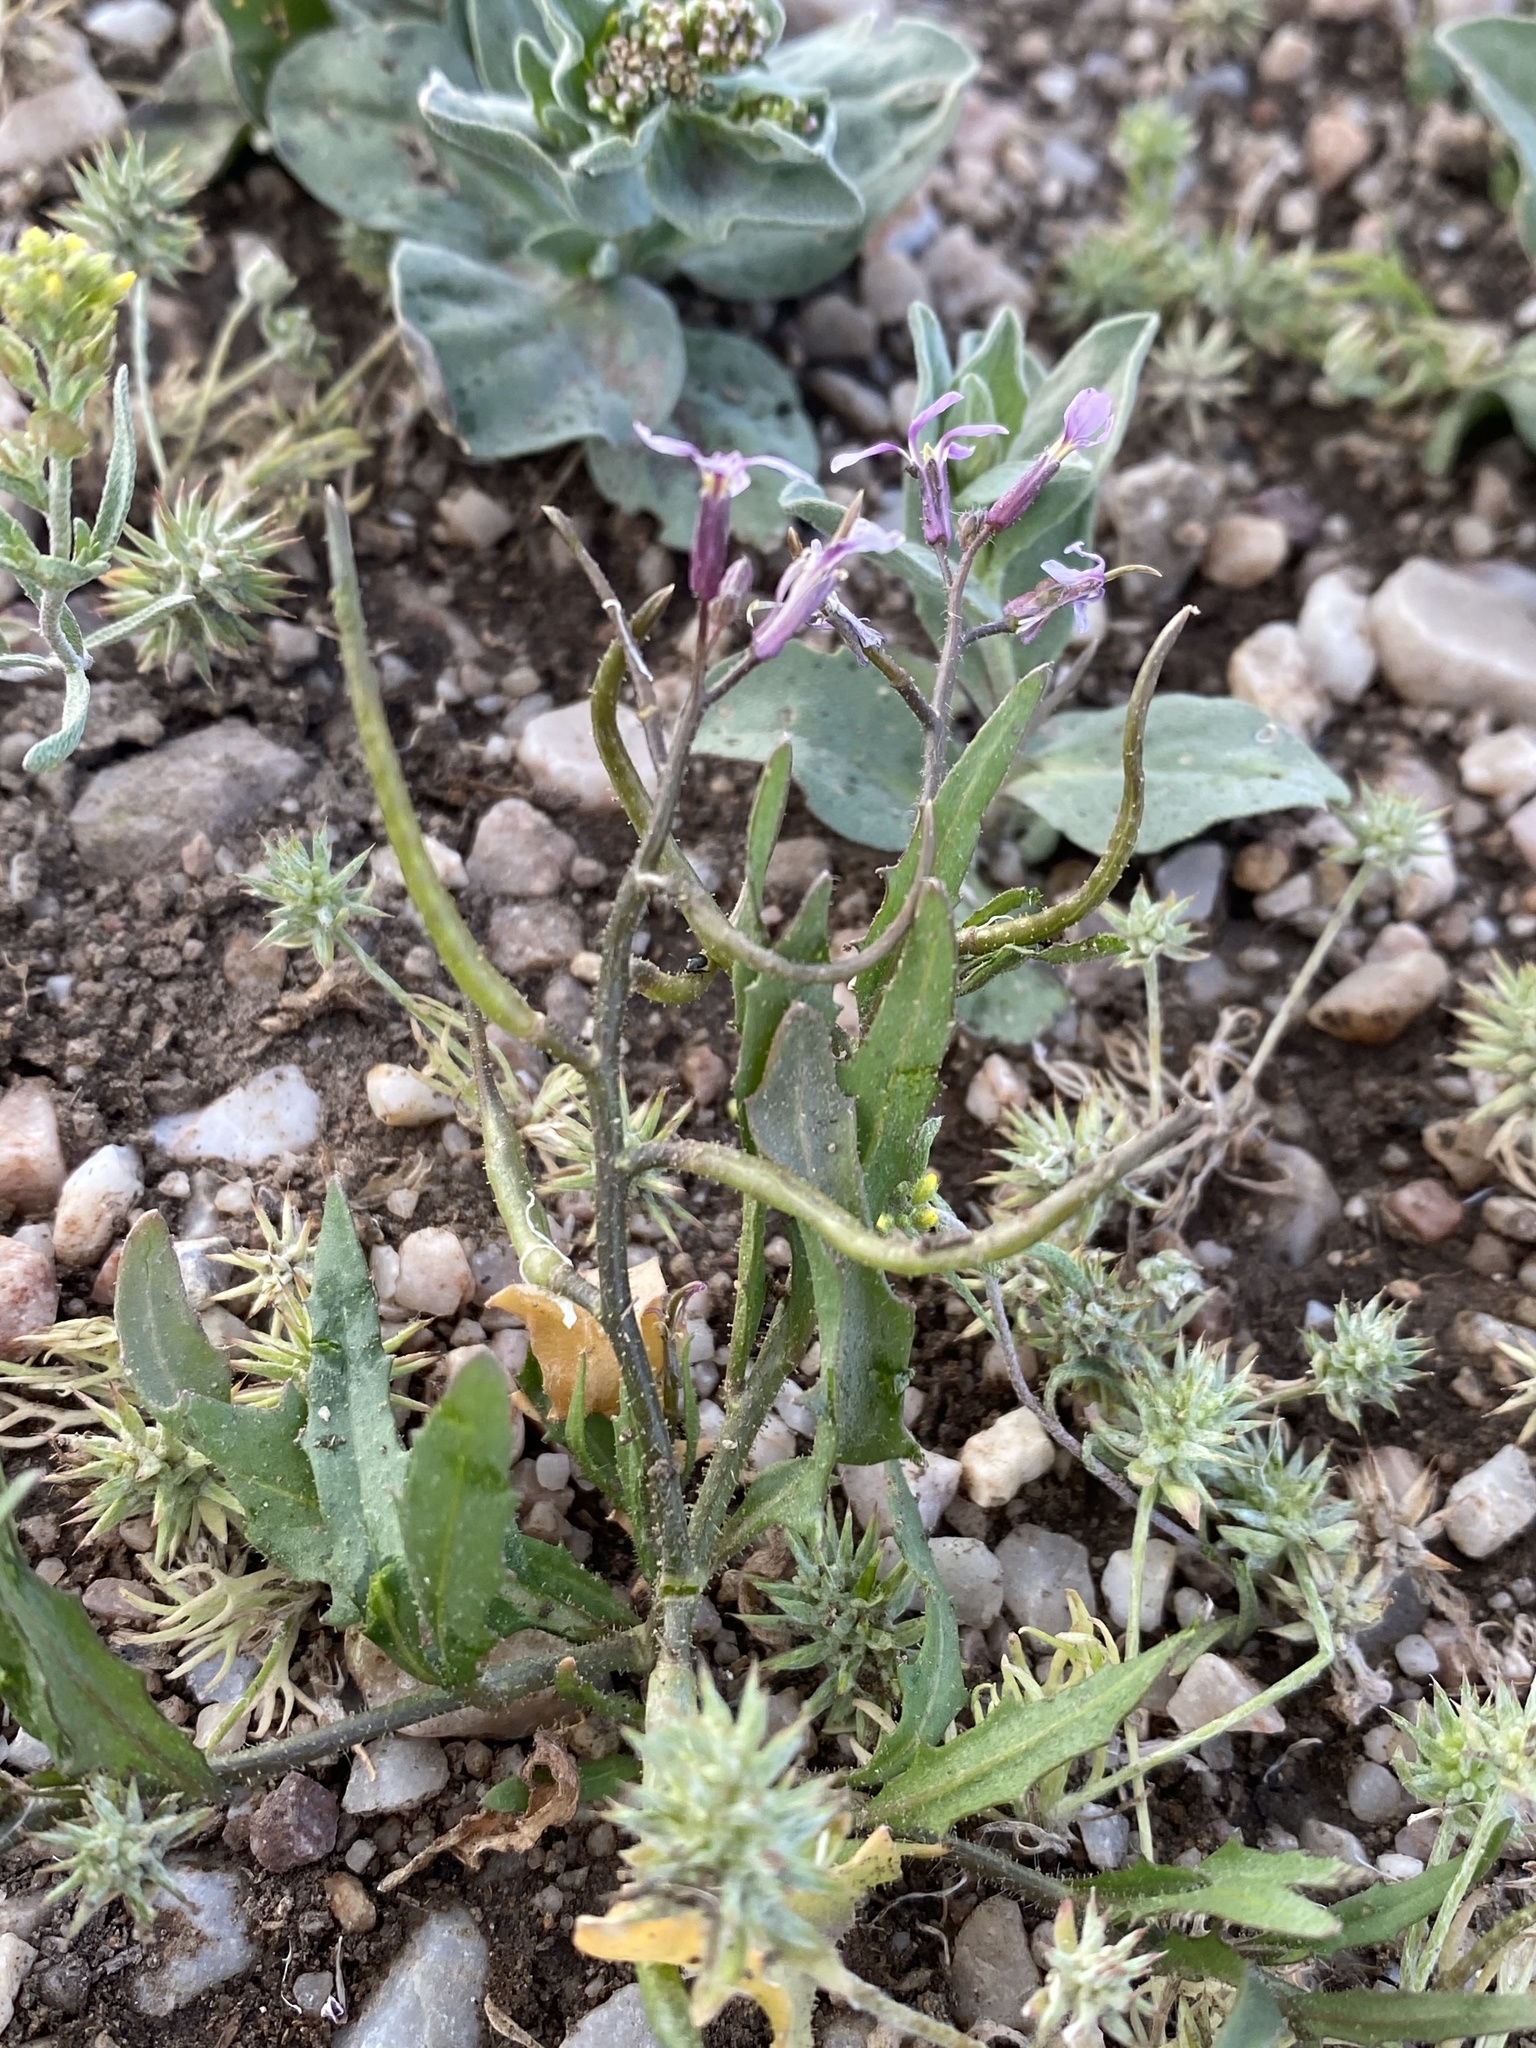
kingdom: Plantae
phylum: Tracheophyta
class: Magnoliopsida
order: Brassicales
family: Brassicaceae
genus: Chorispora
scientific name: Chorispora tenella
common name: Crossflower
